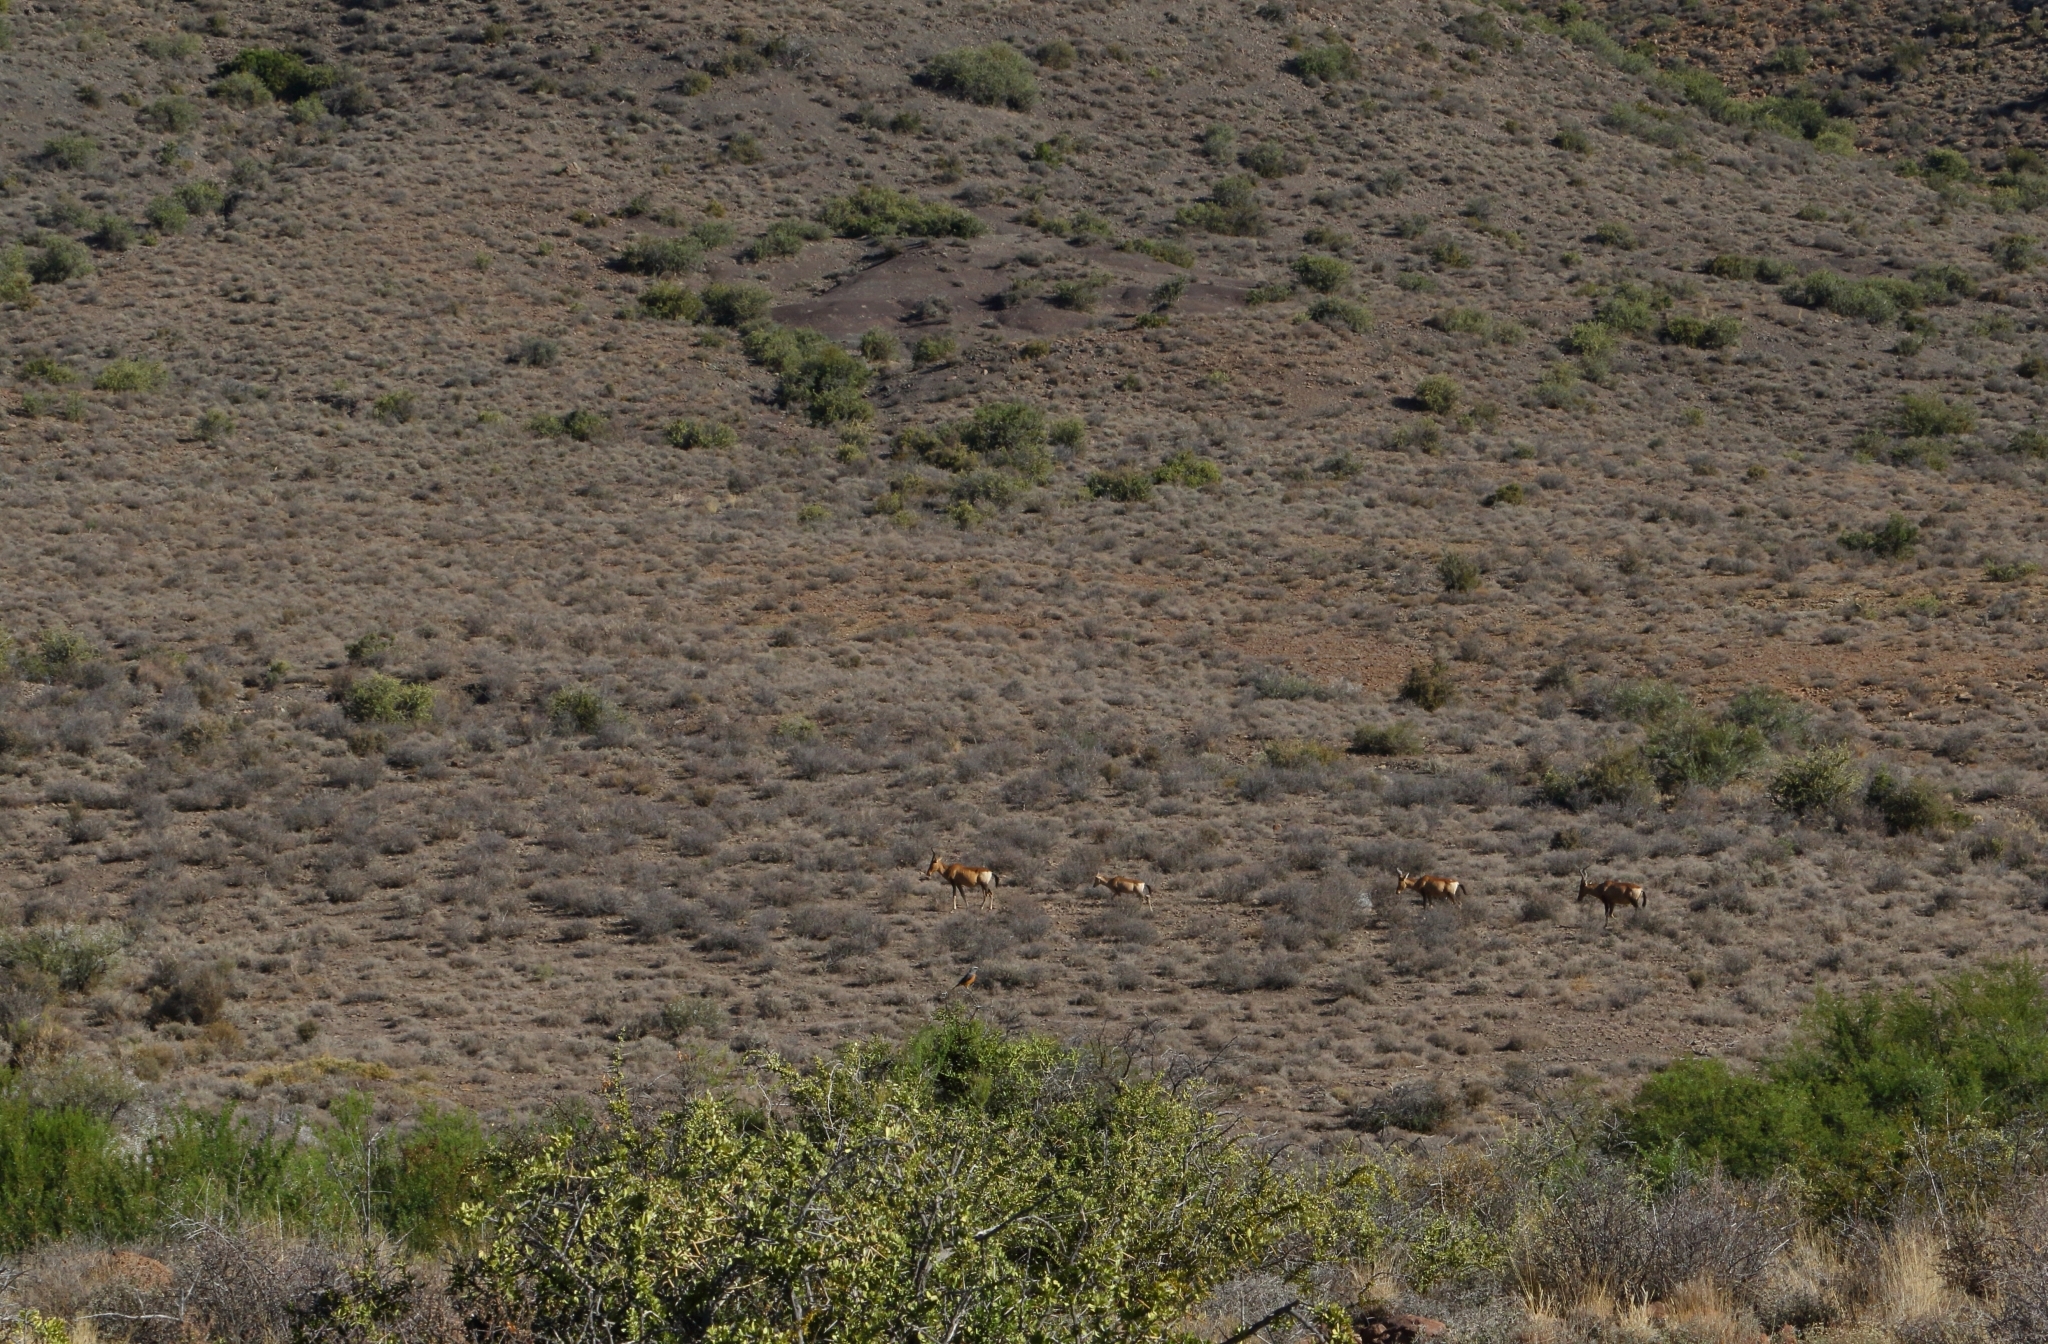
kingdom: Animalia
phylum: Chordata
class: Mammalia
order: Artiodactyla
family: Bovidae
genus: Alcelaphus
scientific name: Alcelaphus caama
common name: Red hartebeest
